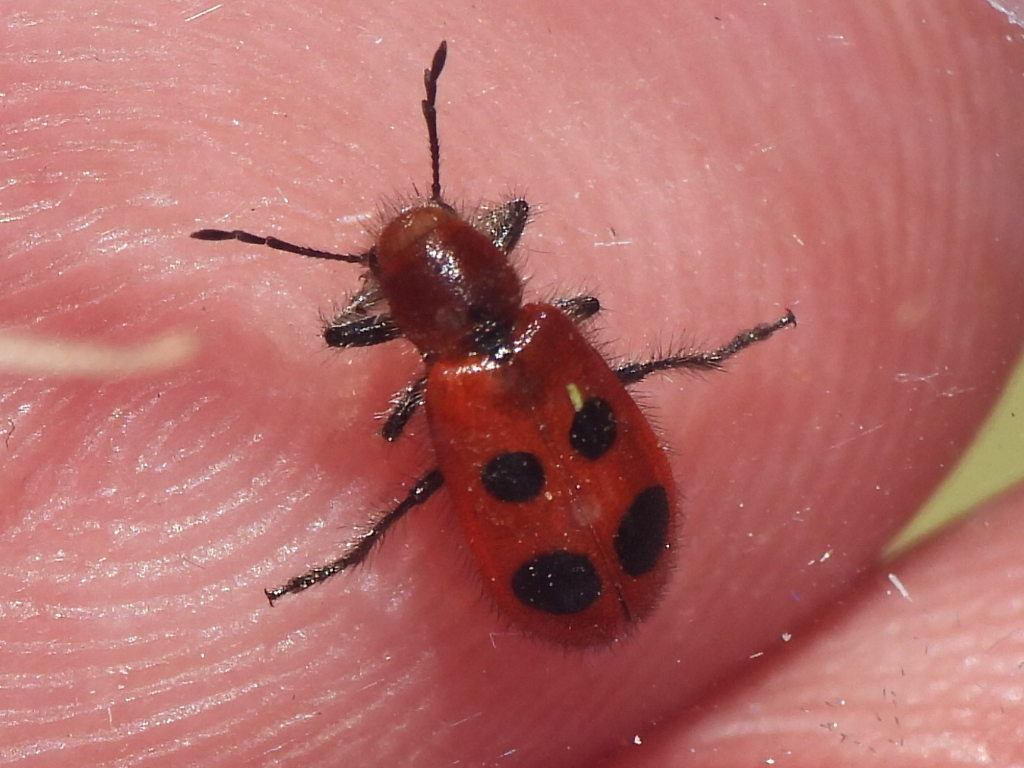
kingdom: Animalia
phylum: Arthropoda
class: Insecta
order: Coleoptera
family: Cleridae
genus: Pelonides
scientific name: Pelonides
